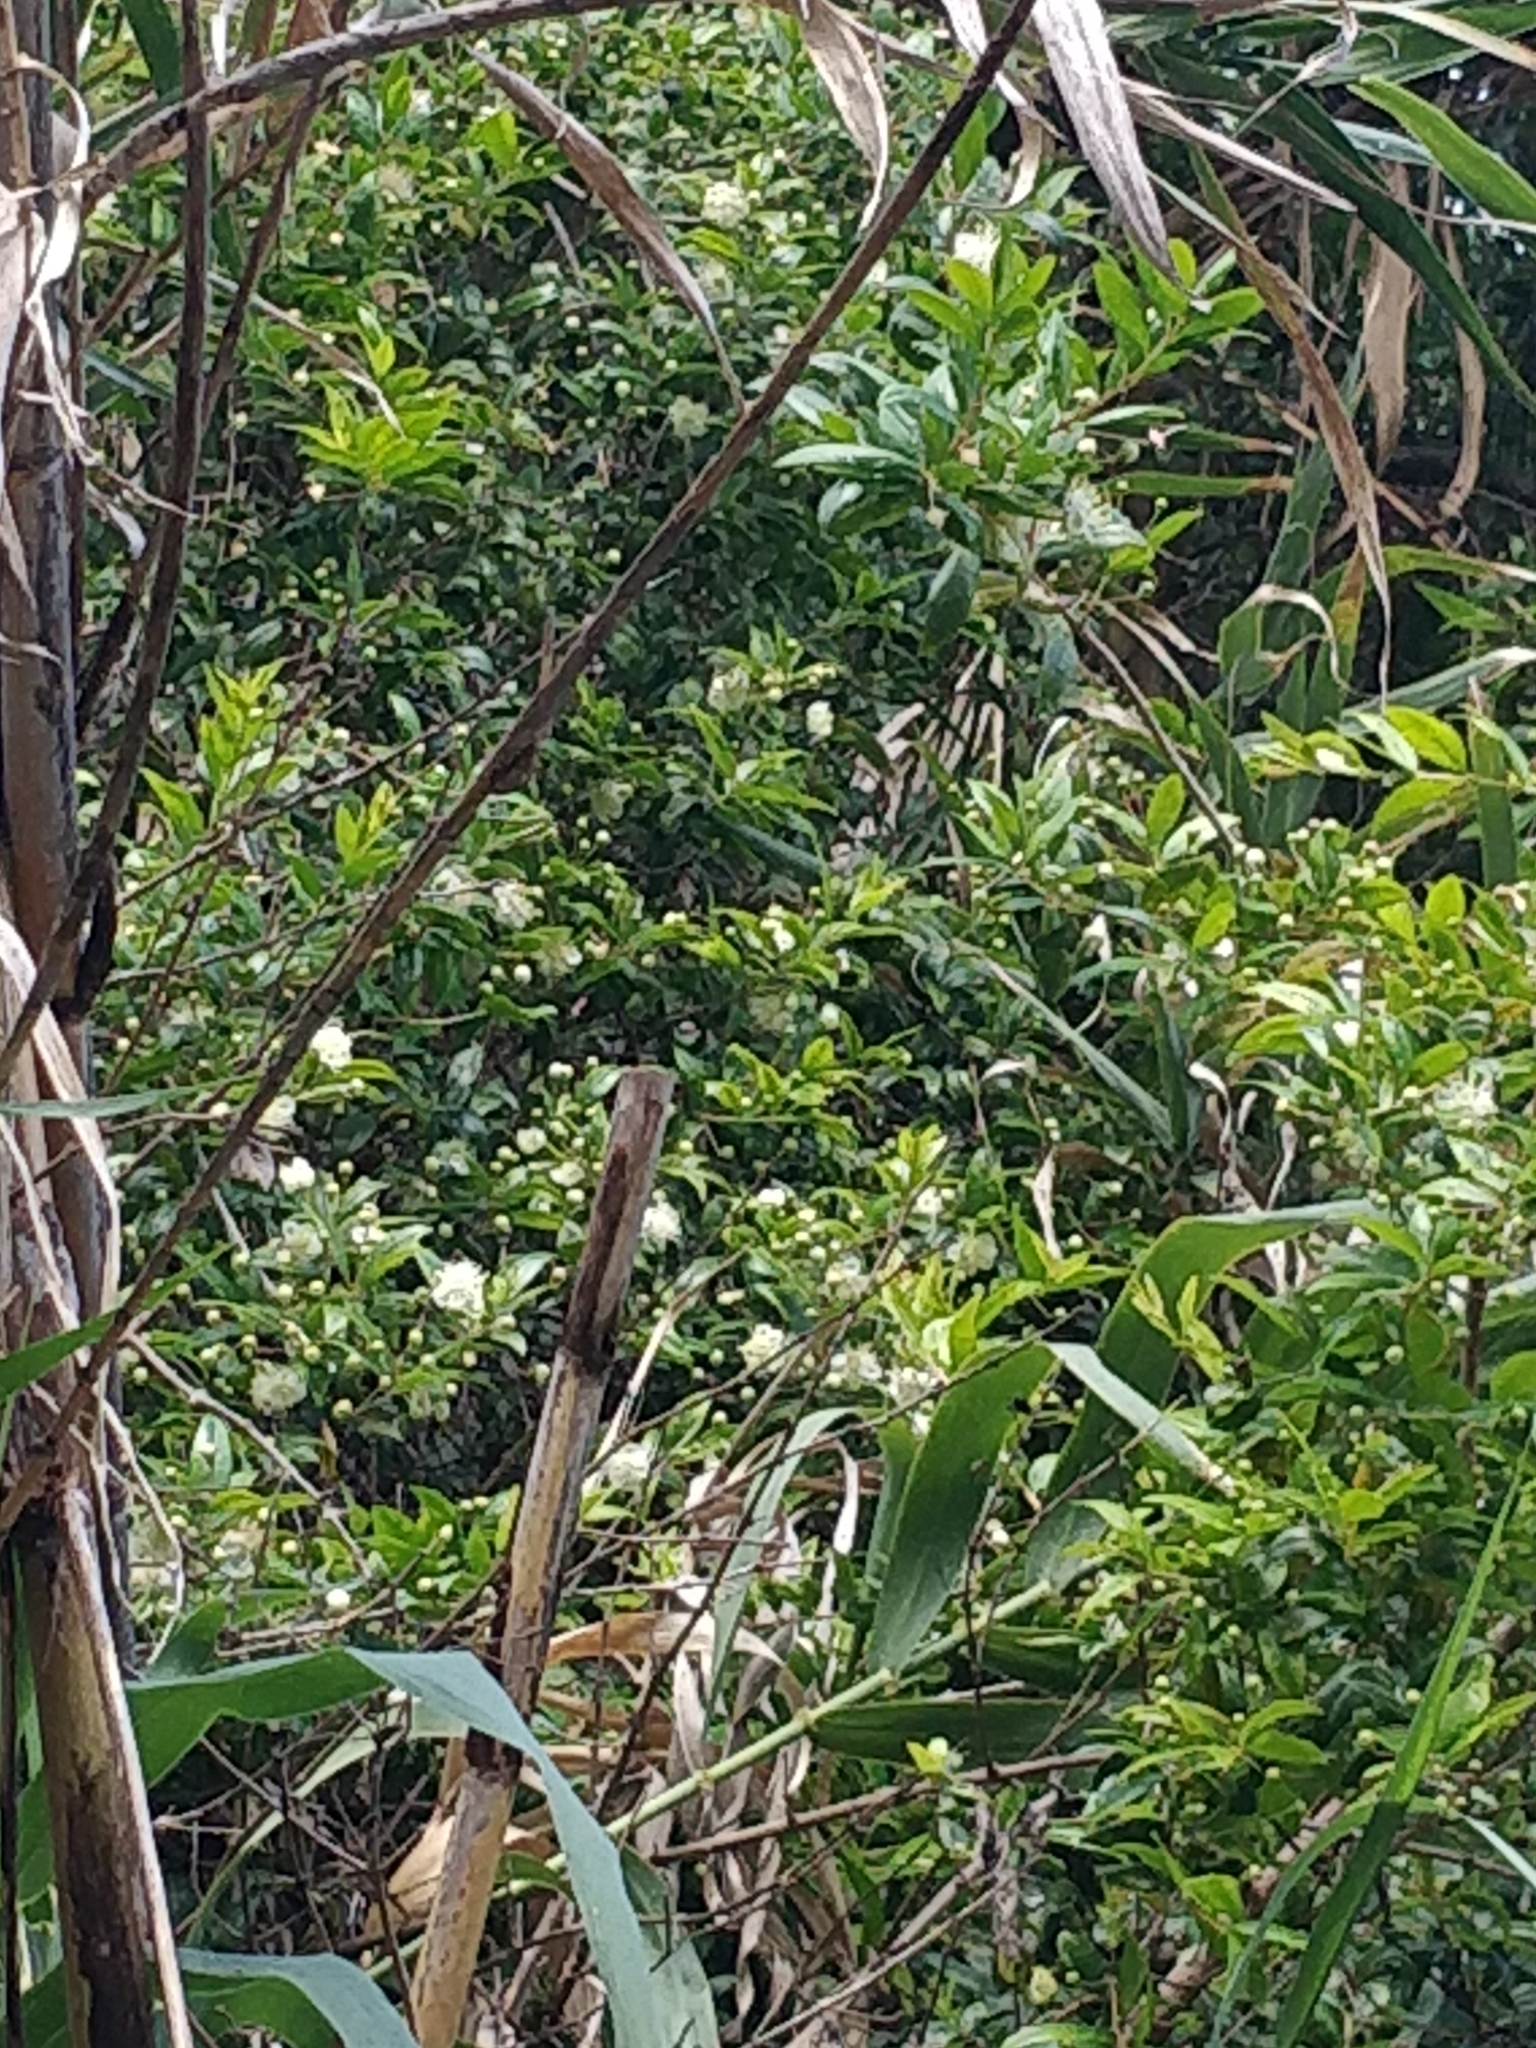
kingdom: Plantae
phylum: Tracheophyta
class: Magnoliopsida
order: Myrtales
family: Myrtaceae
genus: Myrtus
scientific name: Myrtus communis
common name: Myrtle
